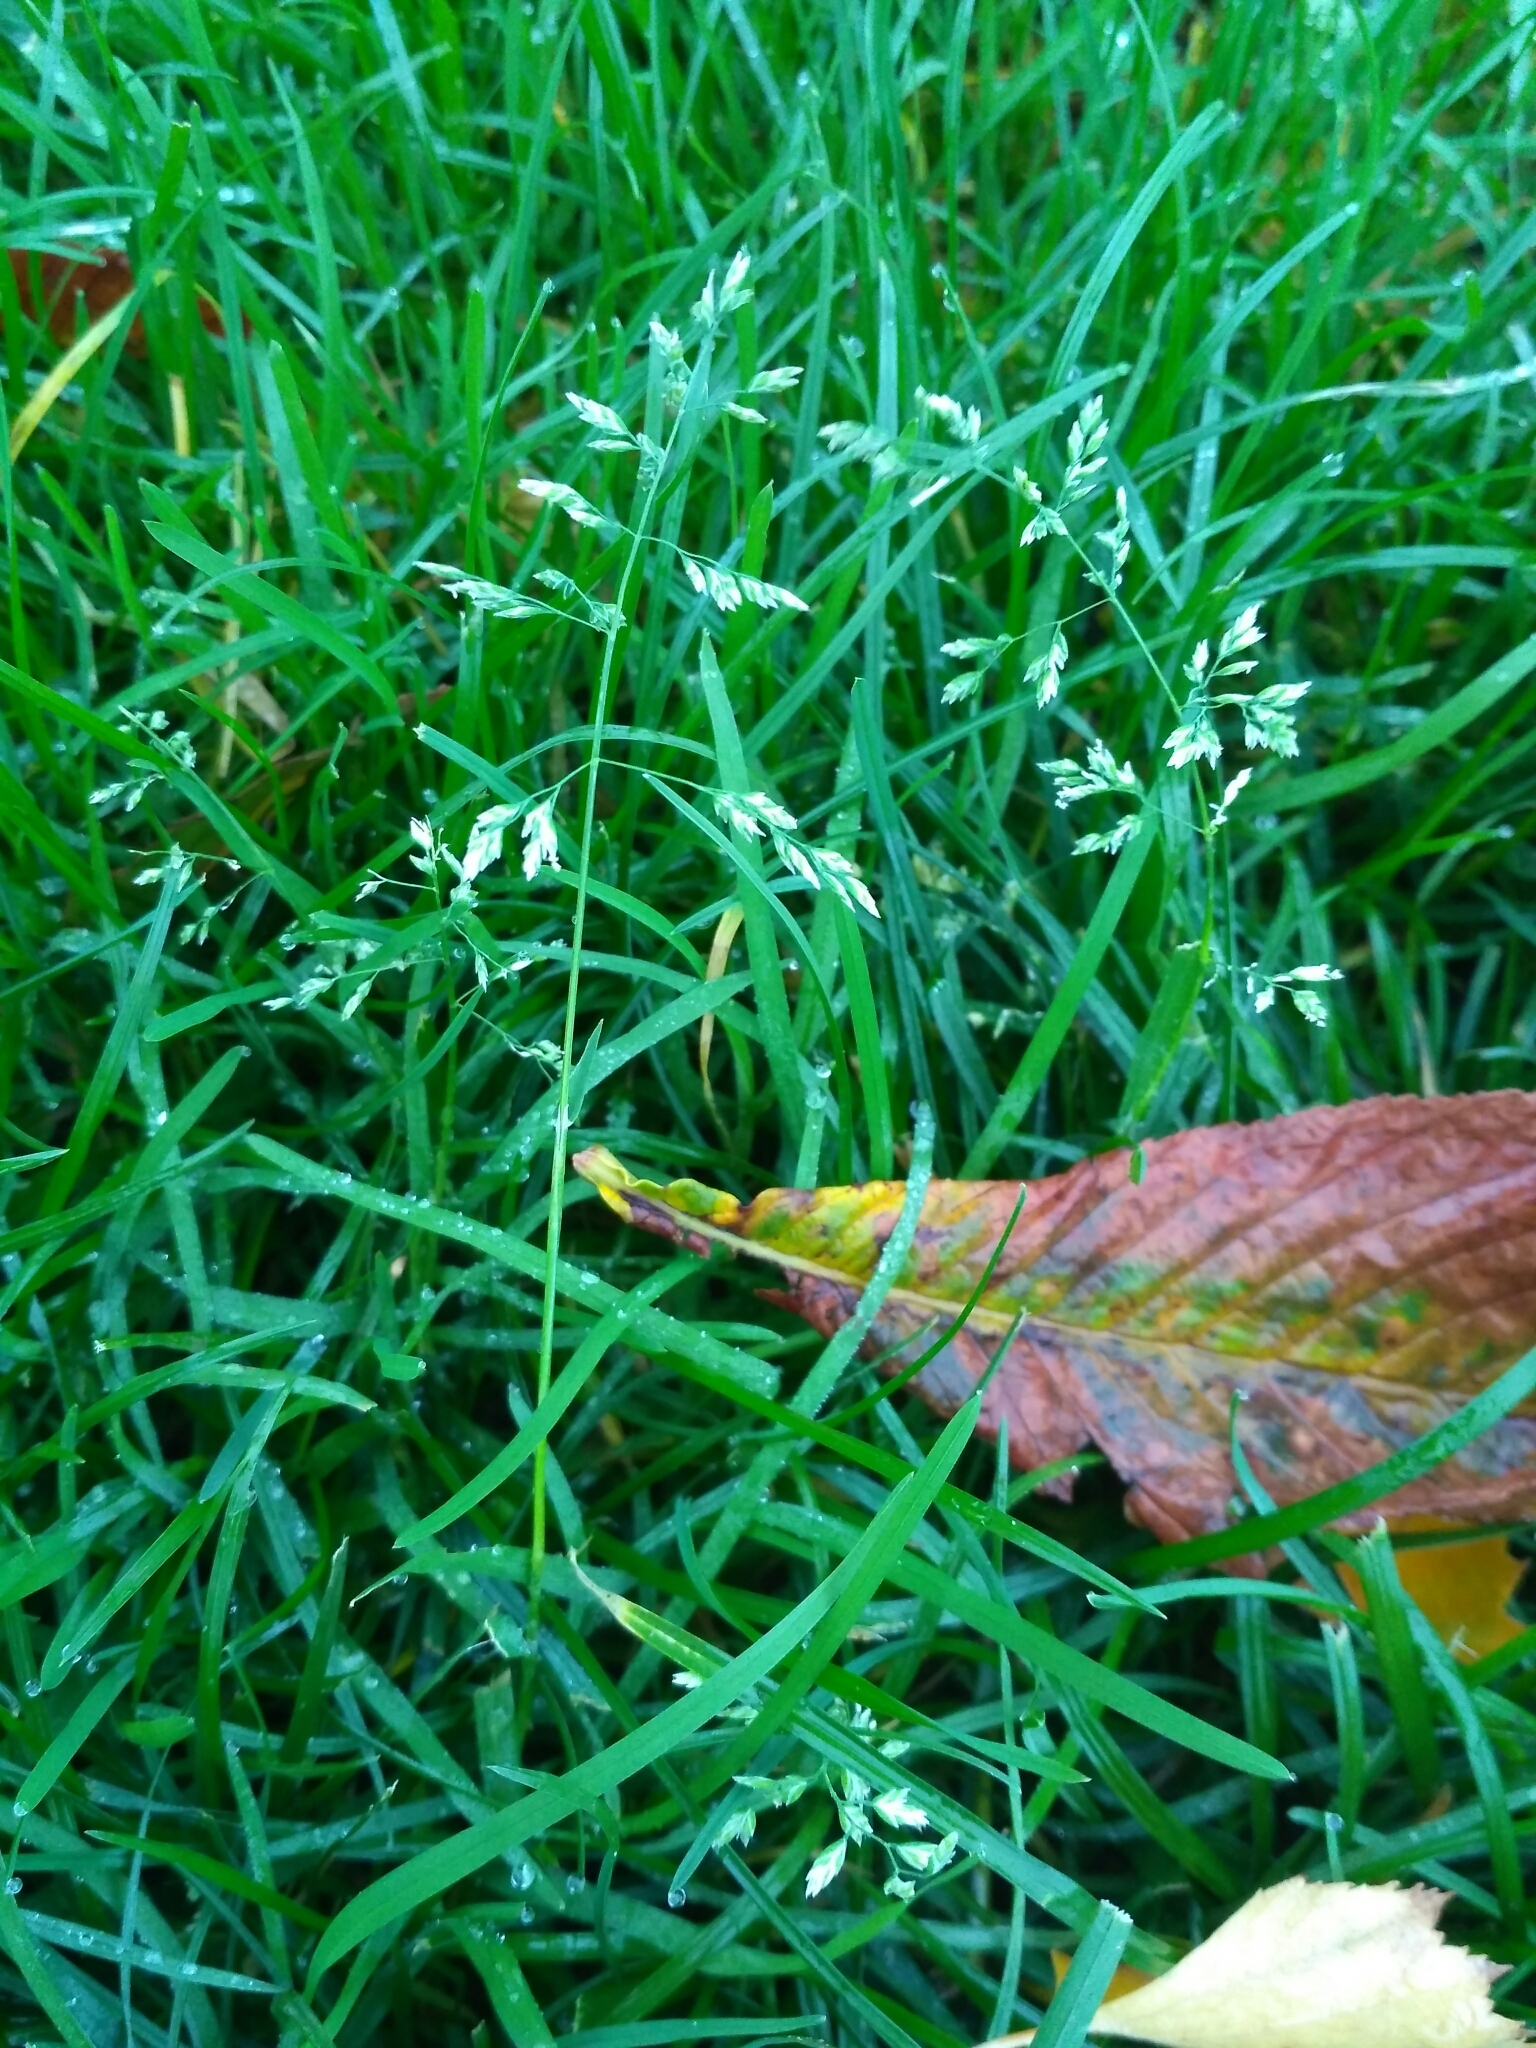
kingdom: Plantae
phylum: Tracheophyta
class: Liliopsida
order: Poales
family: Poaceae
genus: Poa
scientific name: Poa annua
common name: Annual bluegrass
